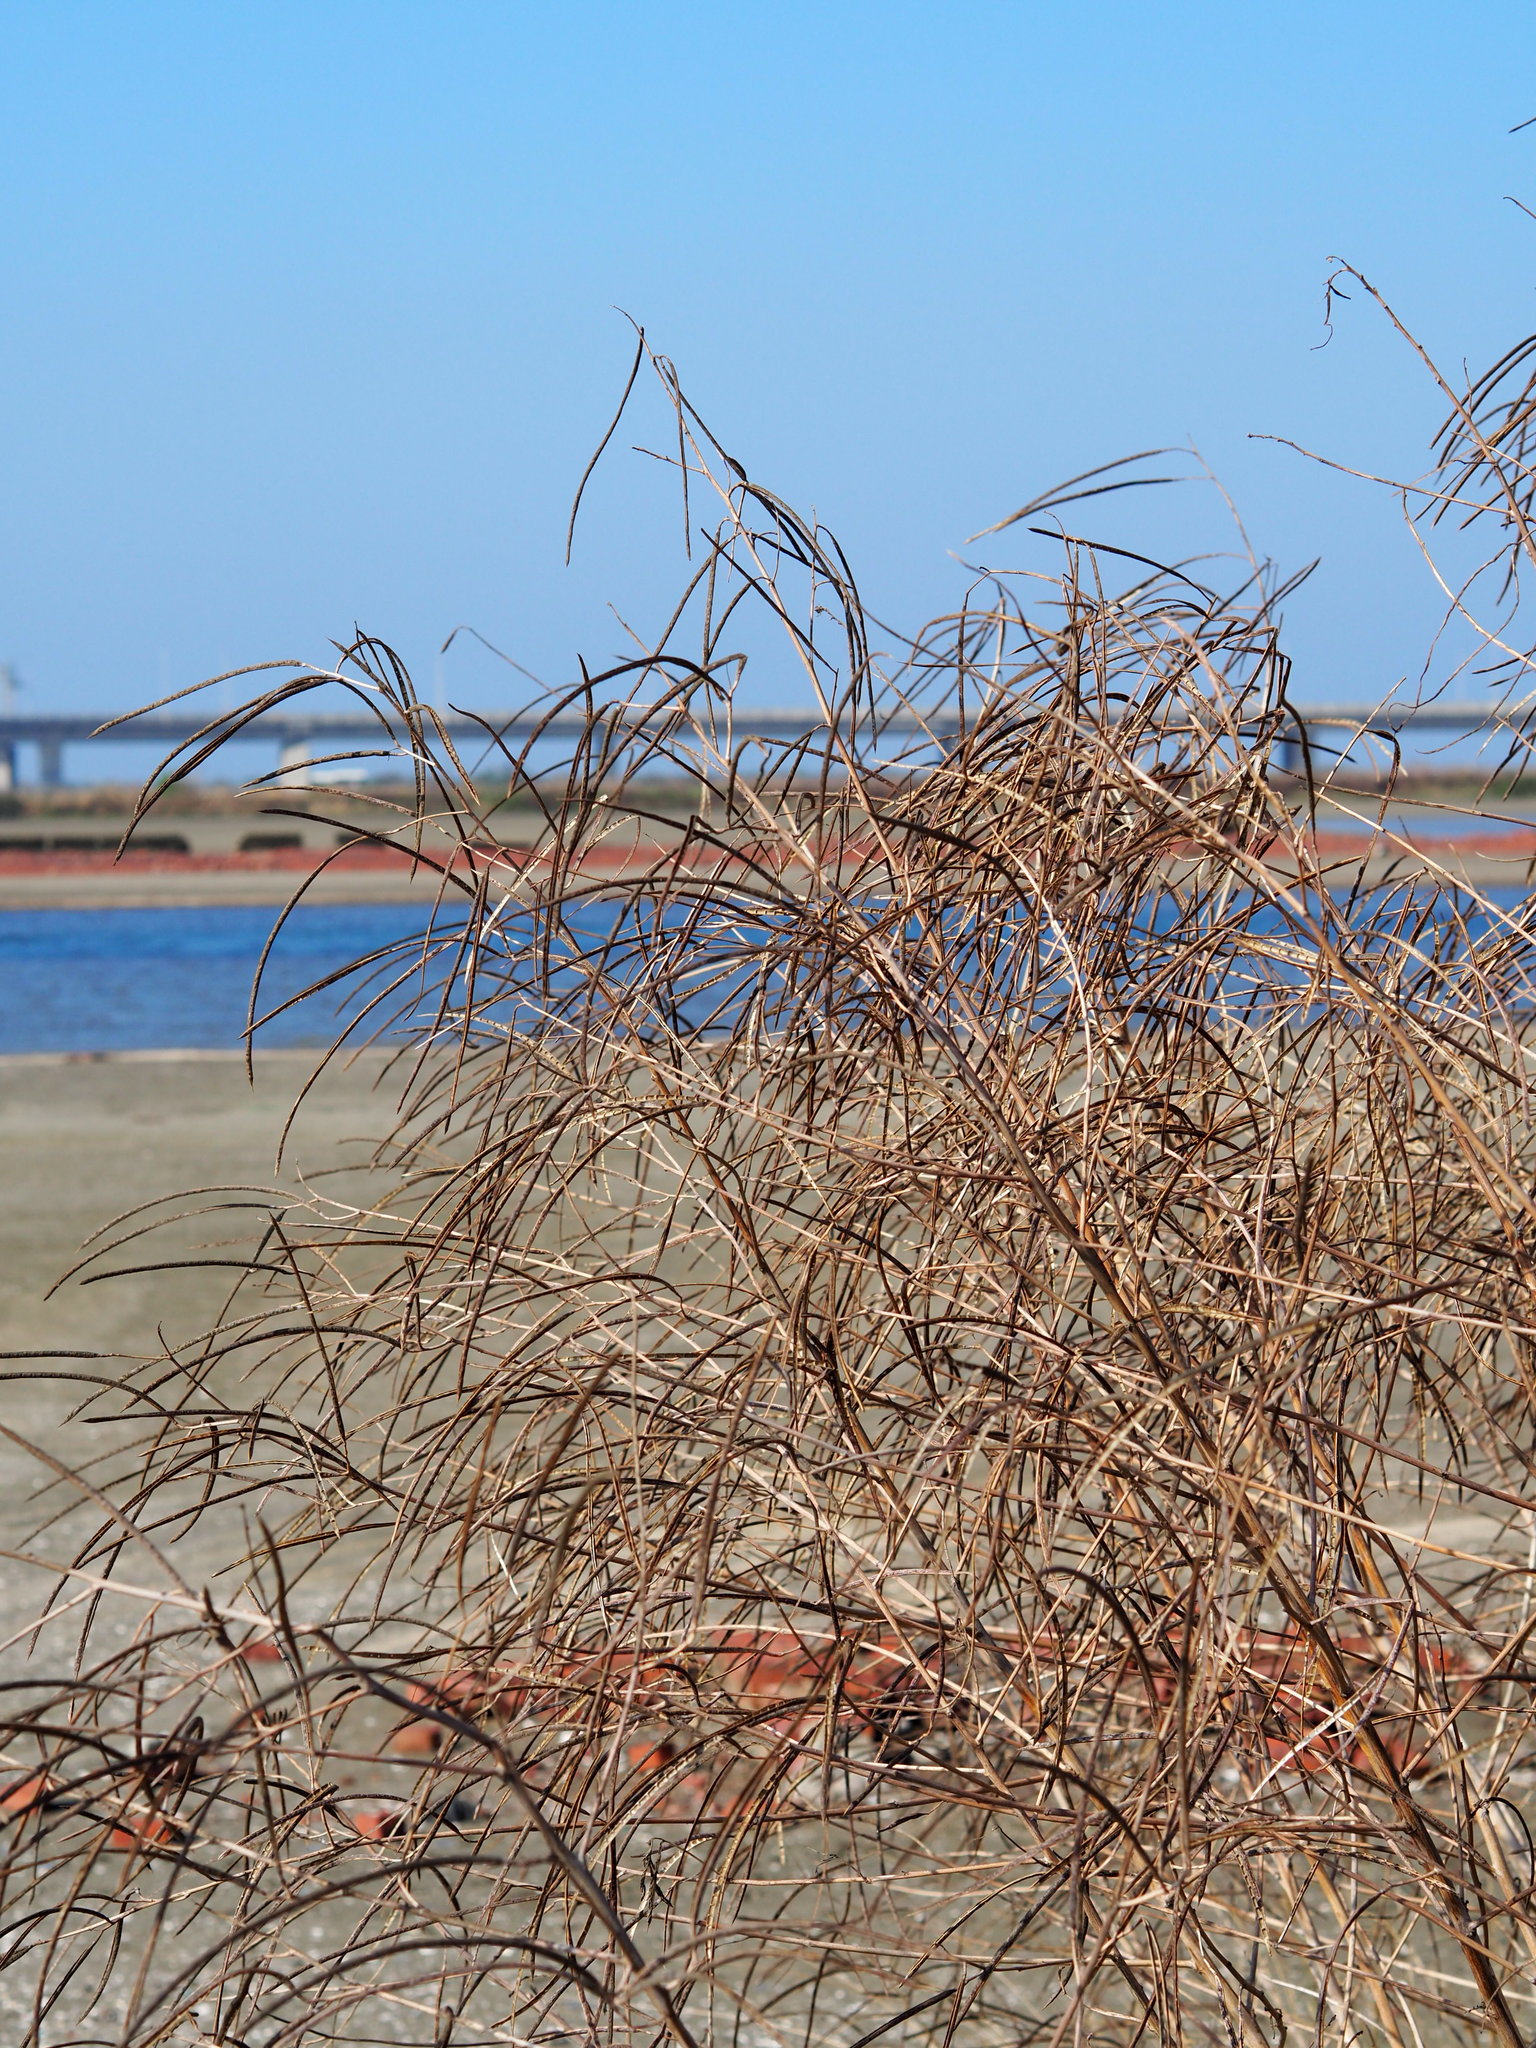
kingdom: Plantae
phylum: Tracheophyta
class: Magnoliopsida
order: Fabales
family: Fabaceae
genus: Sesbania
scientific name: Sesbania cannabina
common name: Canicha
